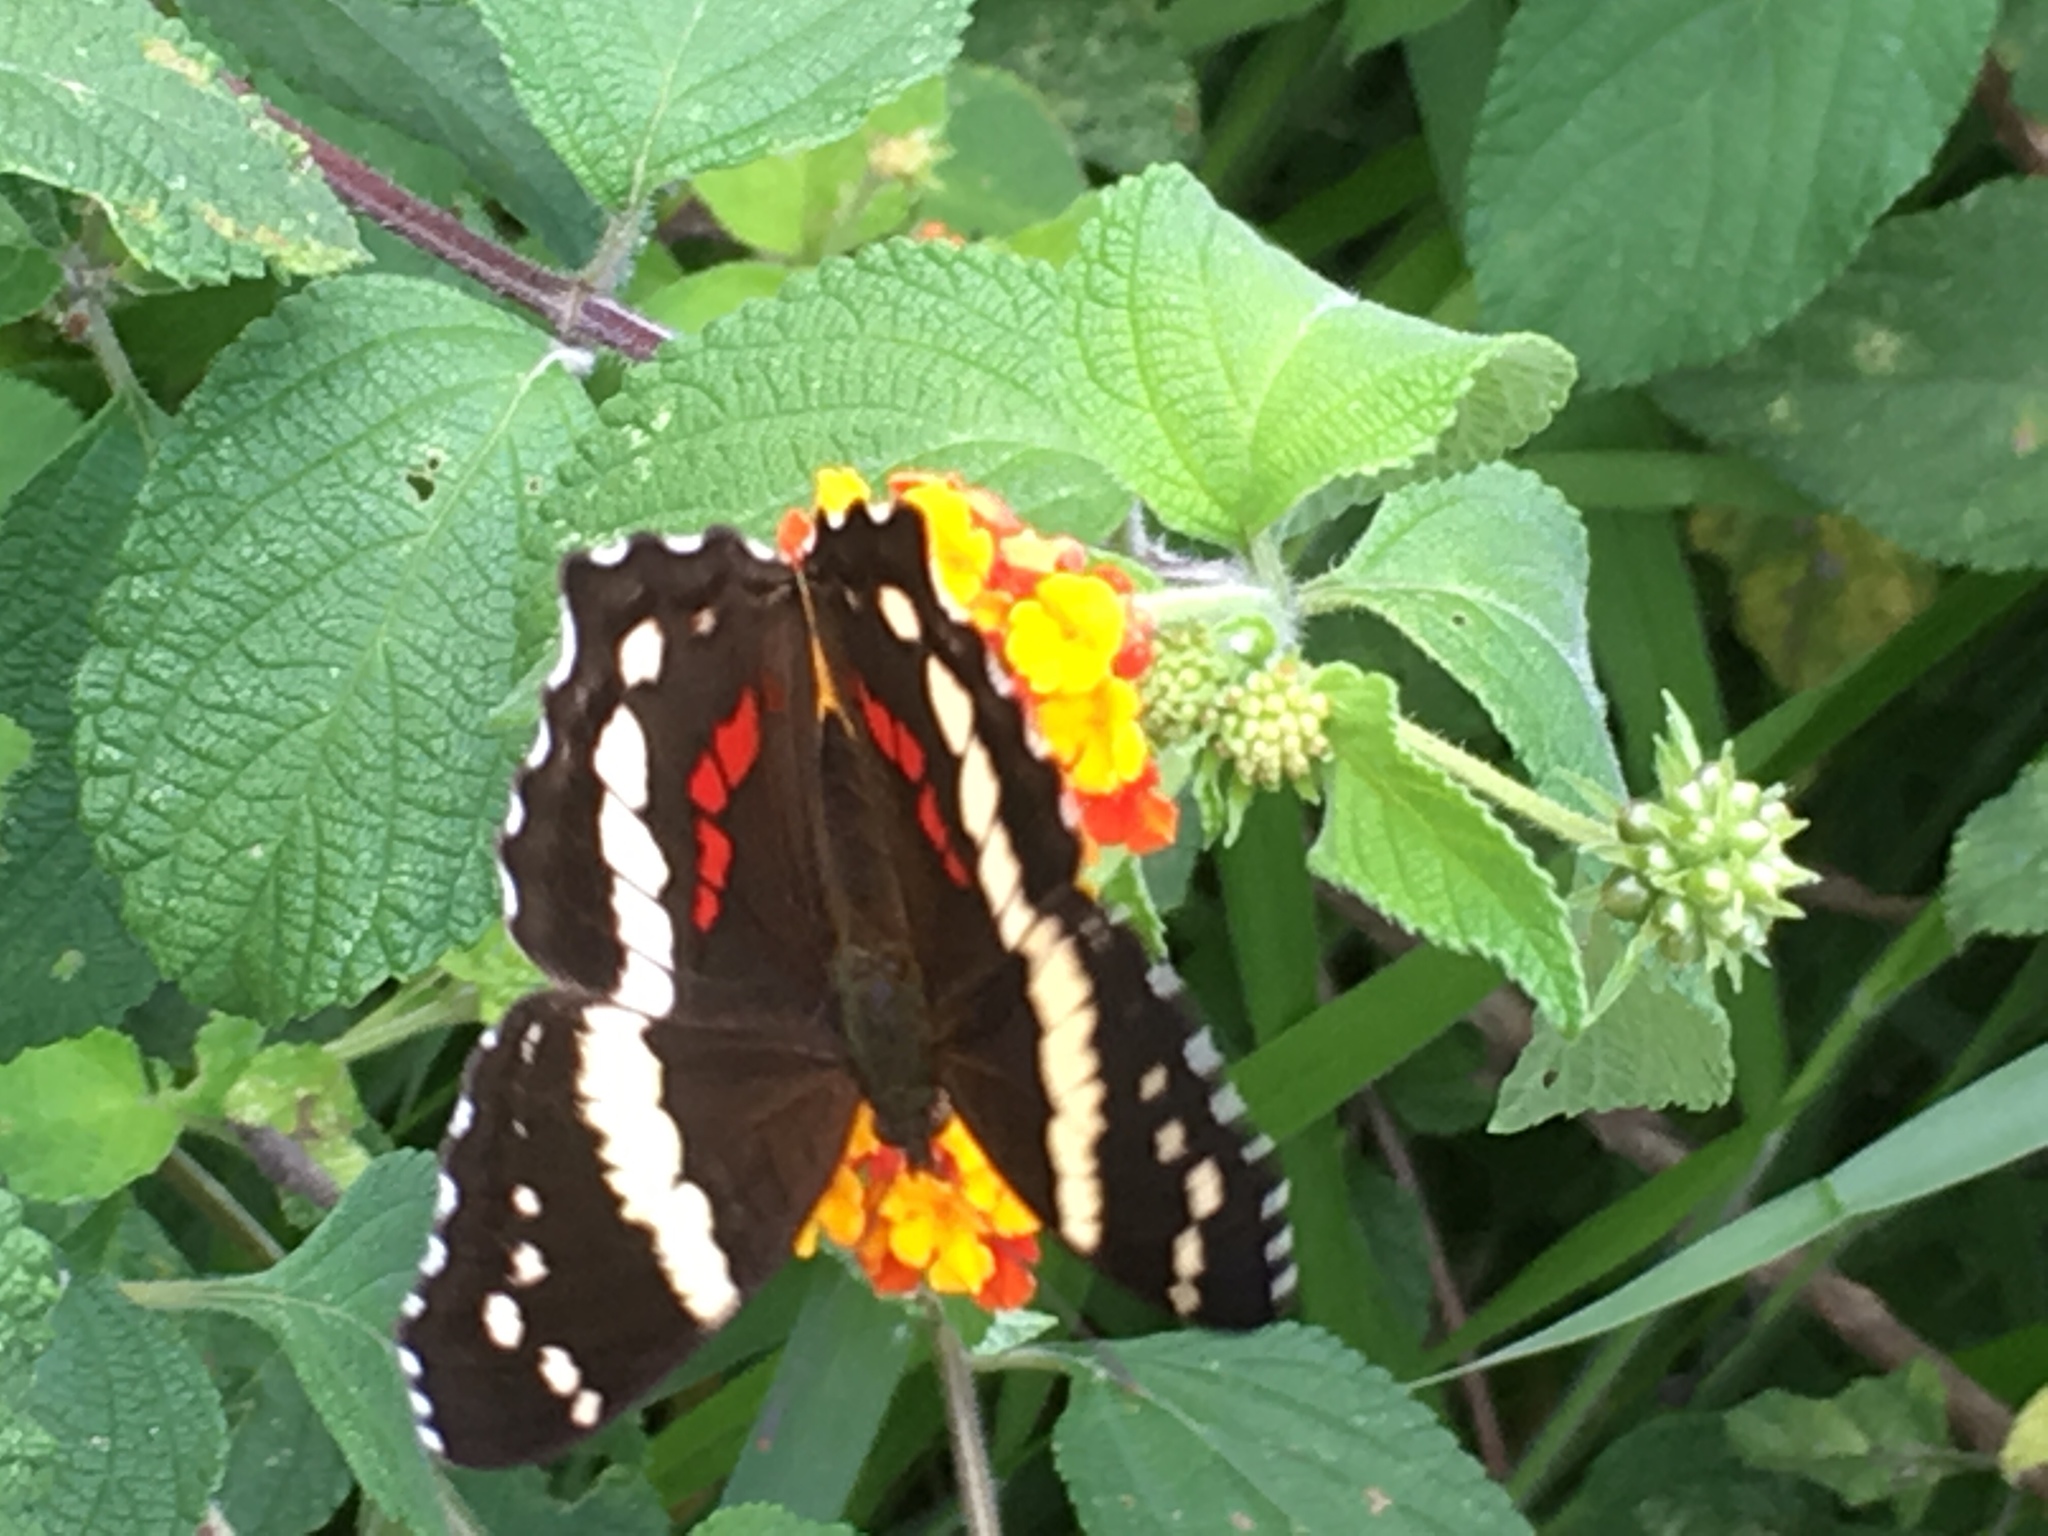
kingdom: Animalia
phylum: Arthropoda
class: Insecta
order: Lepidoptera
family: Nymphalidae
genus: Anartia
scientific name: Anartia fatima
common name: Banded peacock
